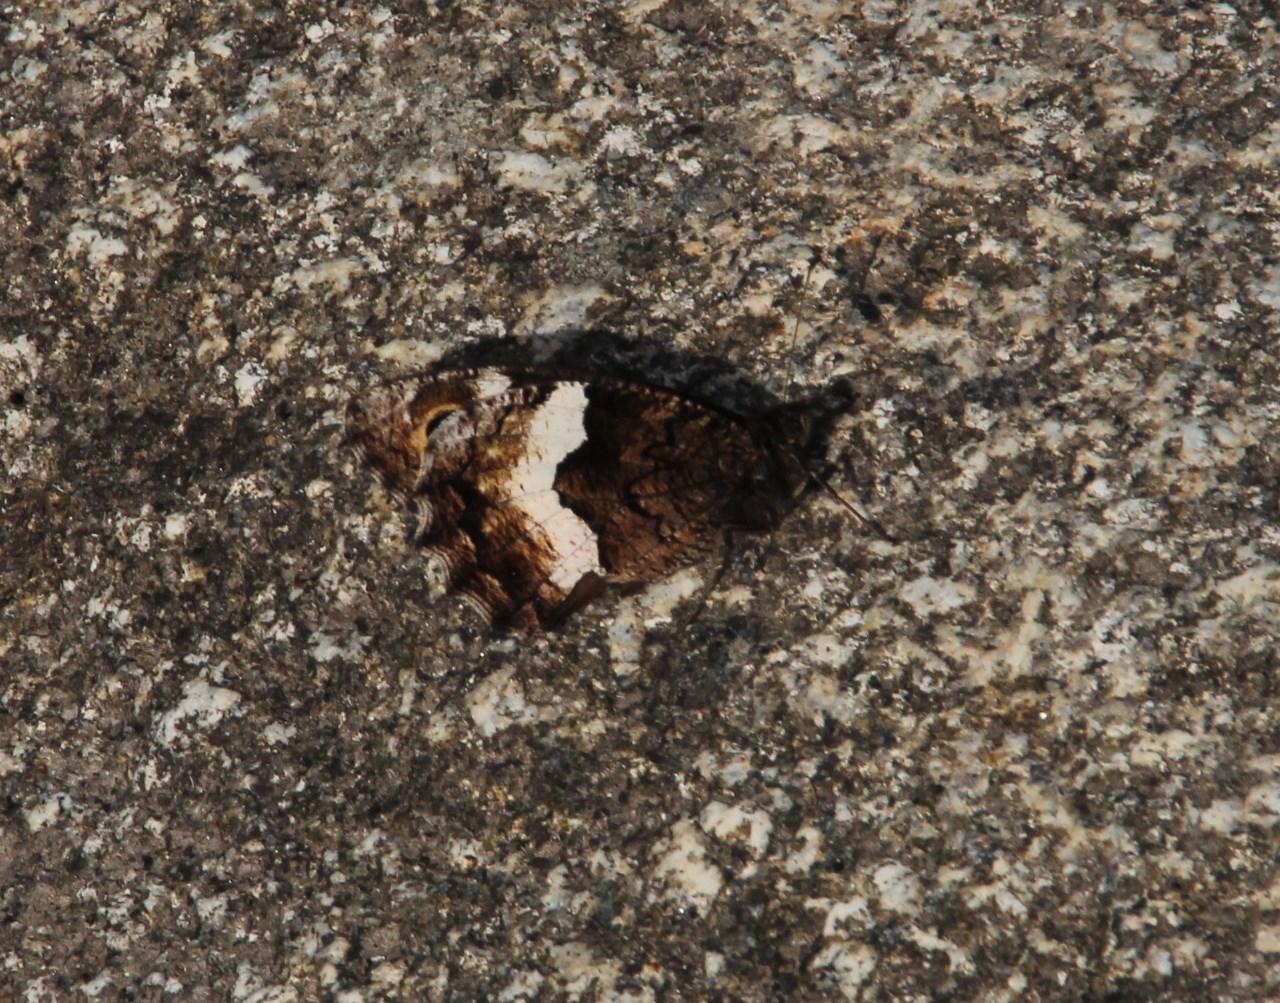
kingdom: Animalia
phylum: Arthropoda
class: Insecta
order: Lepidoptera
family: Nymphalidae
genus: Hipparchia
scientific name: Hipparchia hermione
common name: Rock grayling
